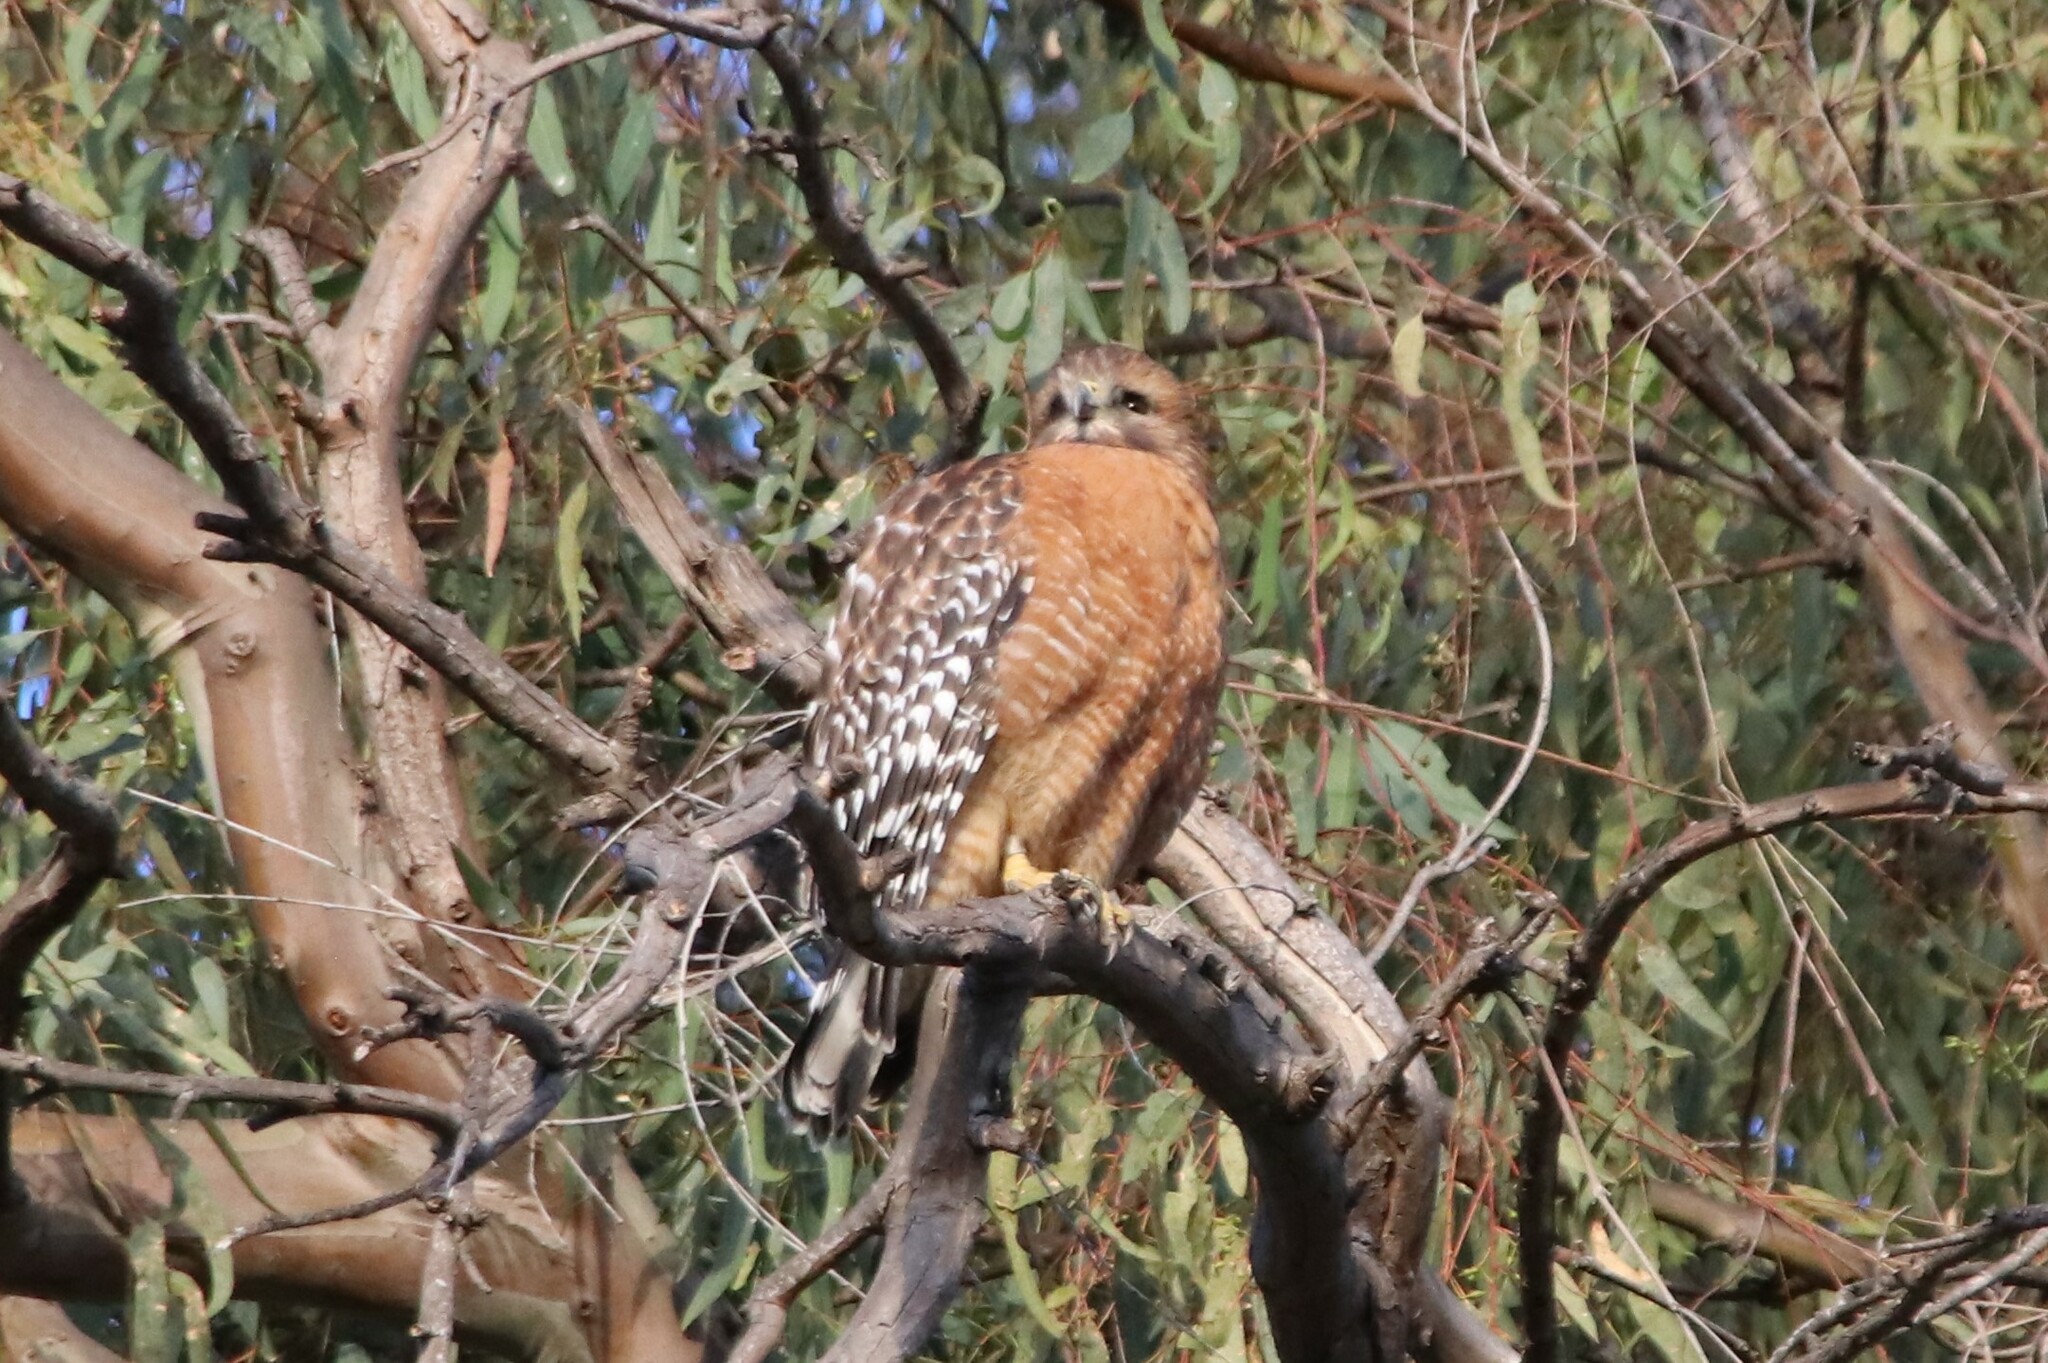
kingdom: Animalia
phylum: Chordata
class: Aves
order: Accipitriformes
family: Accipitridae
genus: Buteo
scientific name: Buteo lineatus
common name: Red-shouldered hawk
